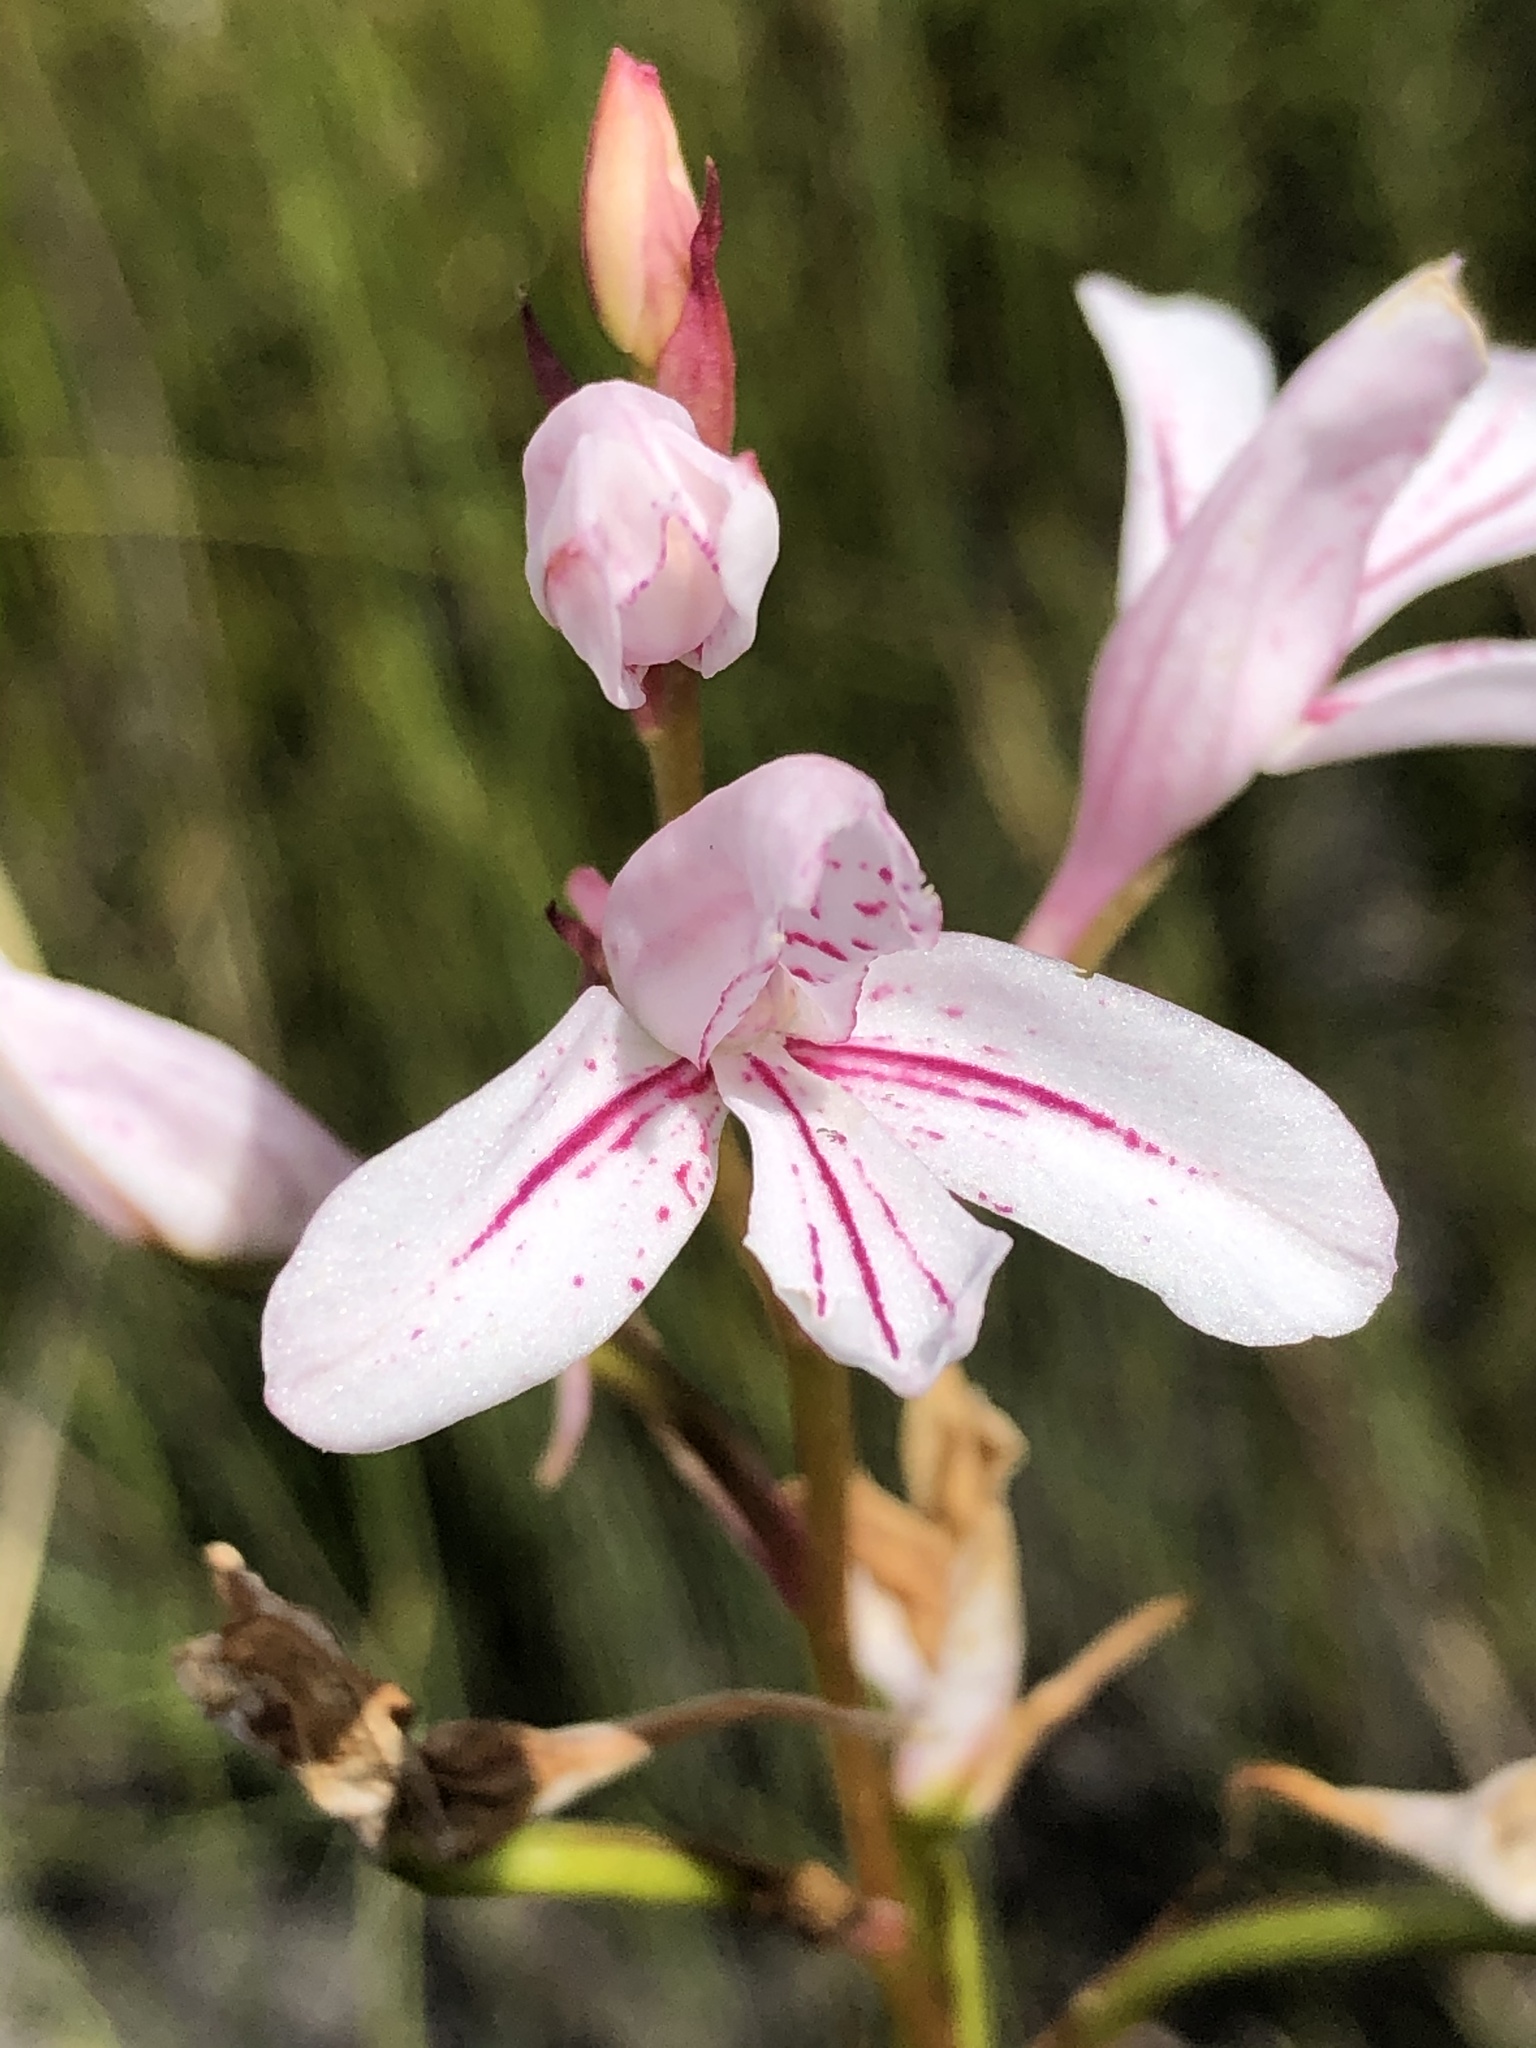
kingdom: Plantae
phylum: Tracheophyta
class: Liliopsida
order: Asparagales
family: Orchidaceae
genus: Disa
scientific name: Disa gladioliflora
